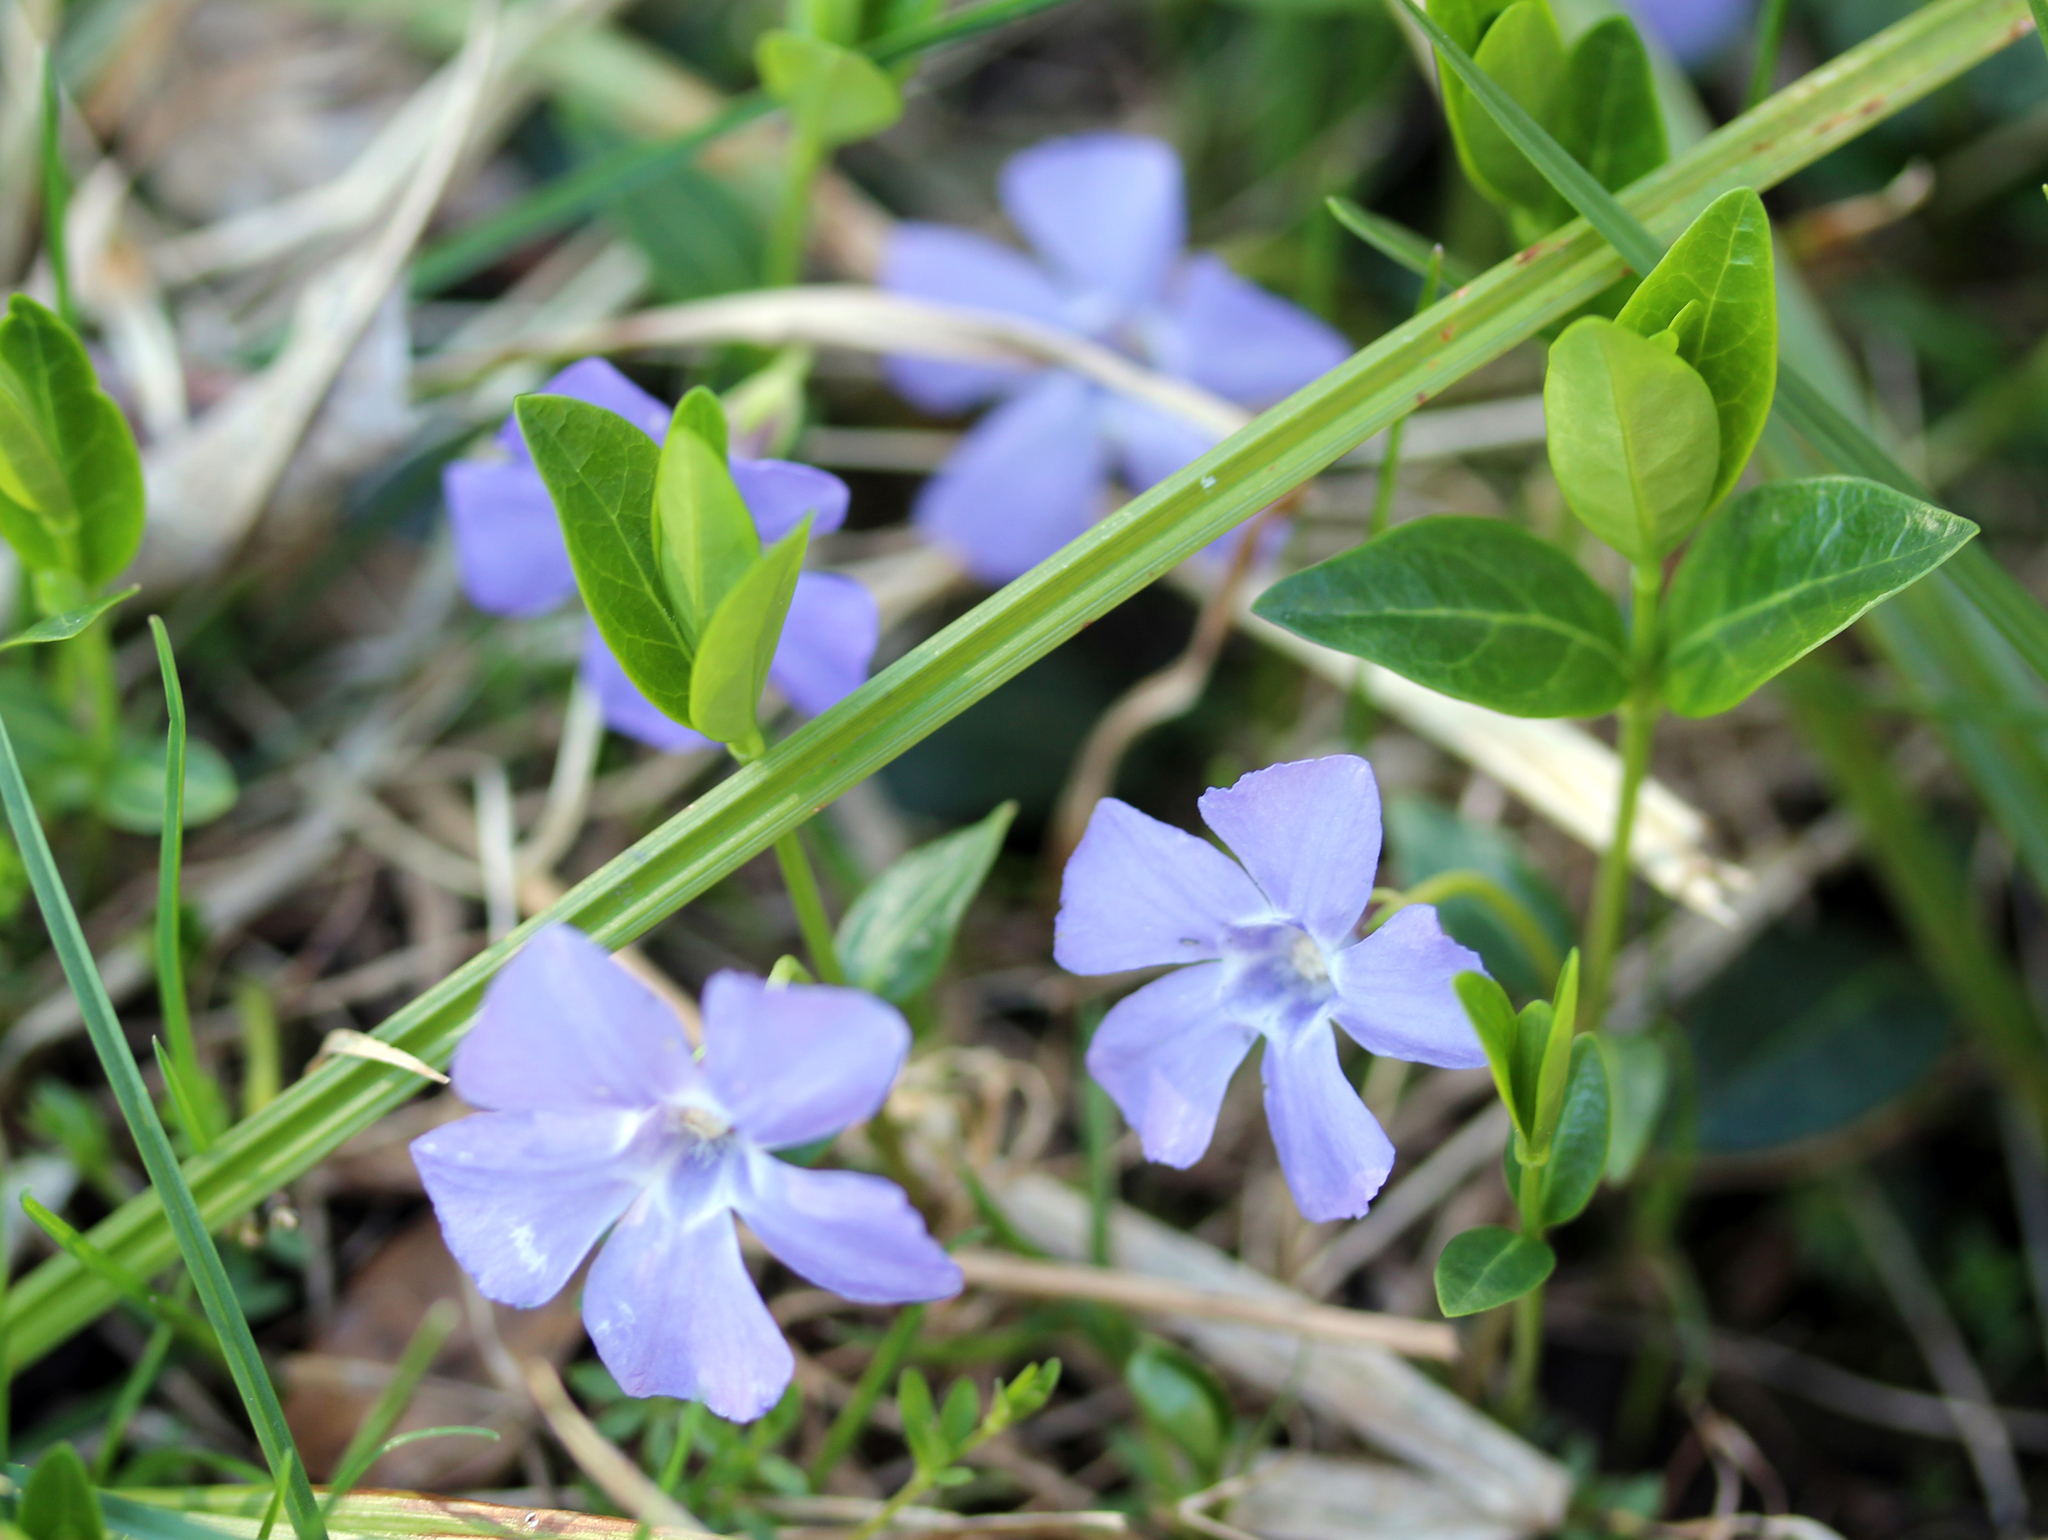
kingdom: Plantae
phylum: Tracheophyta
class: Magnoliopsida
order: Gentianales
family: Apocynaceae
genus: Vinca
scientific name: Vinca minor
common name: Lesser periwinkle
